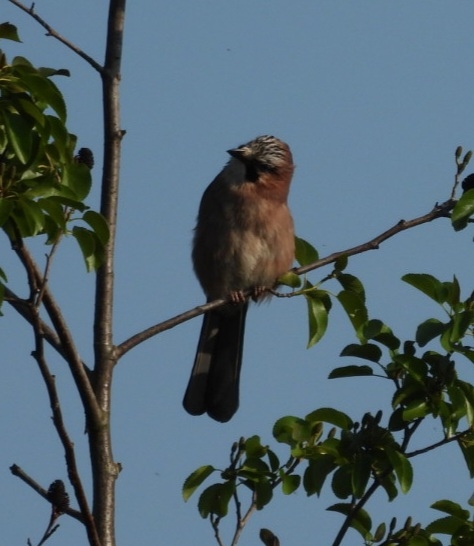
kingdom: Animalia
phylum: Chordata
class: Aves
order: Passeriformes
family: Corvidae
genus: Garrulus
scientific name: Garrulus glandarius
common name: Eurasian jay
